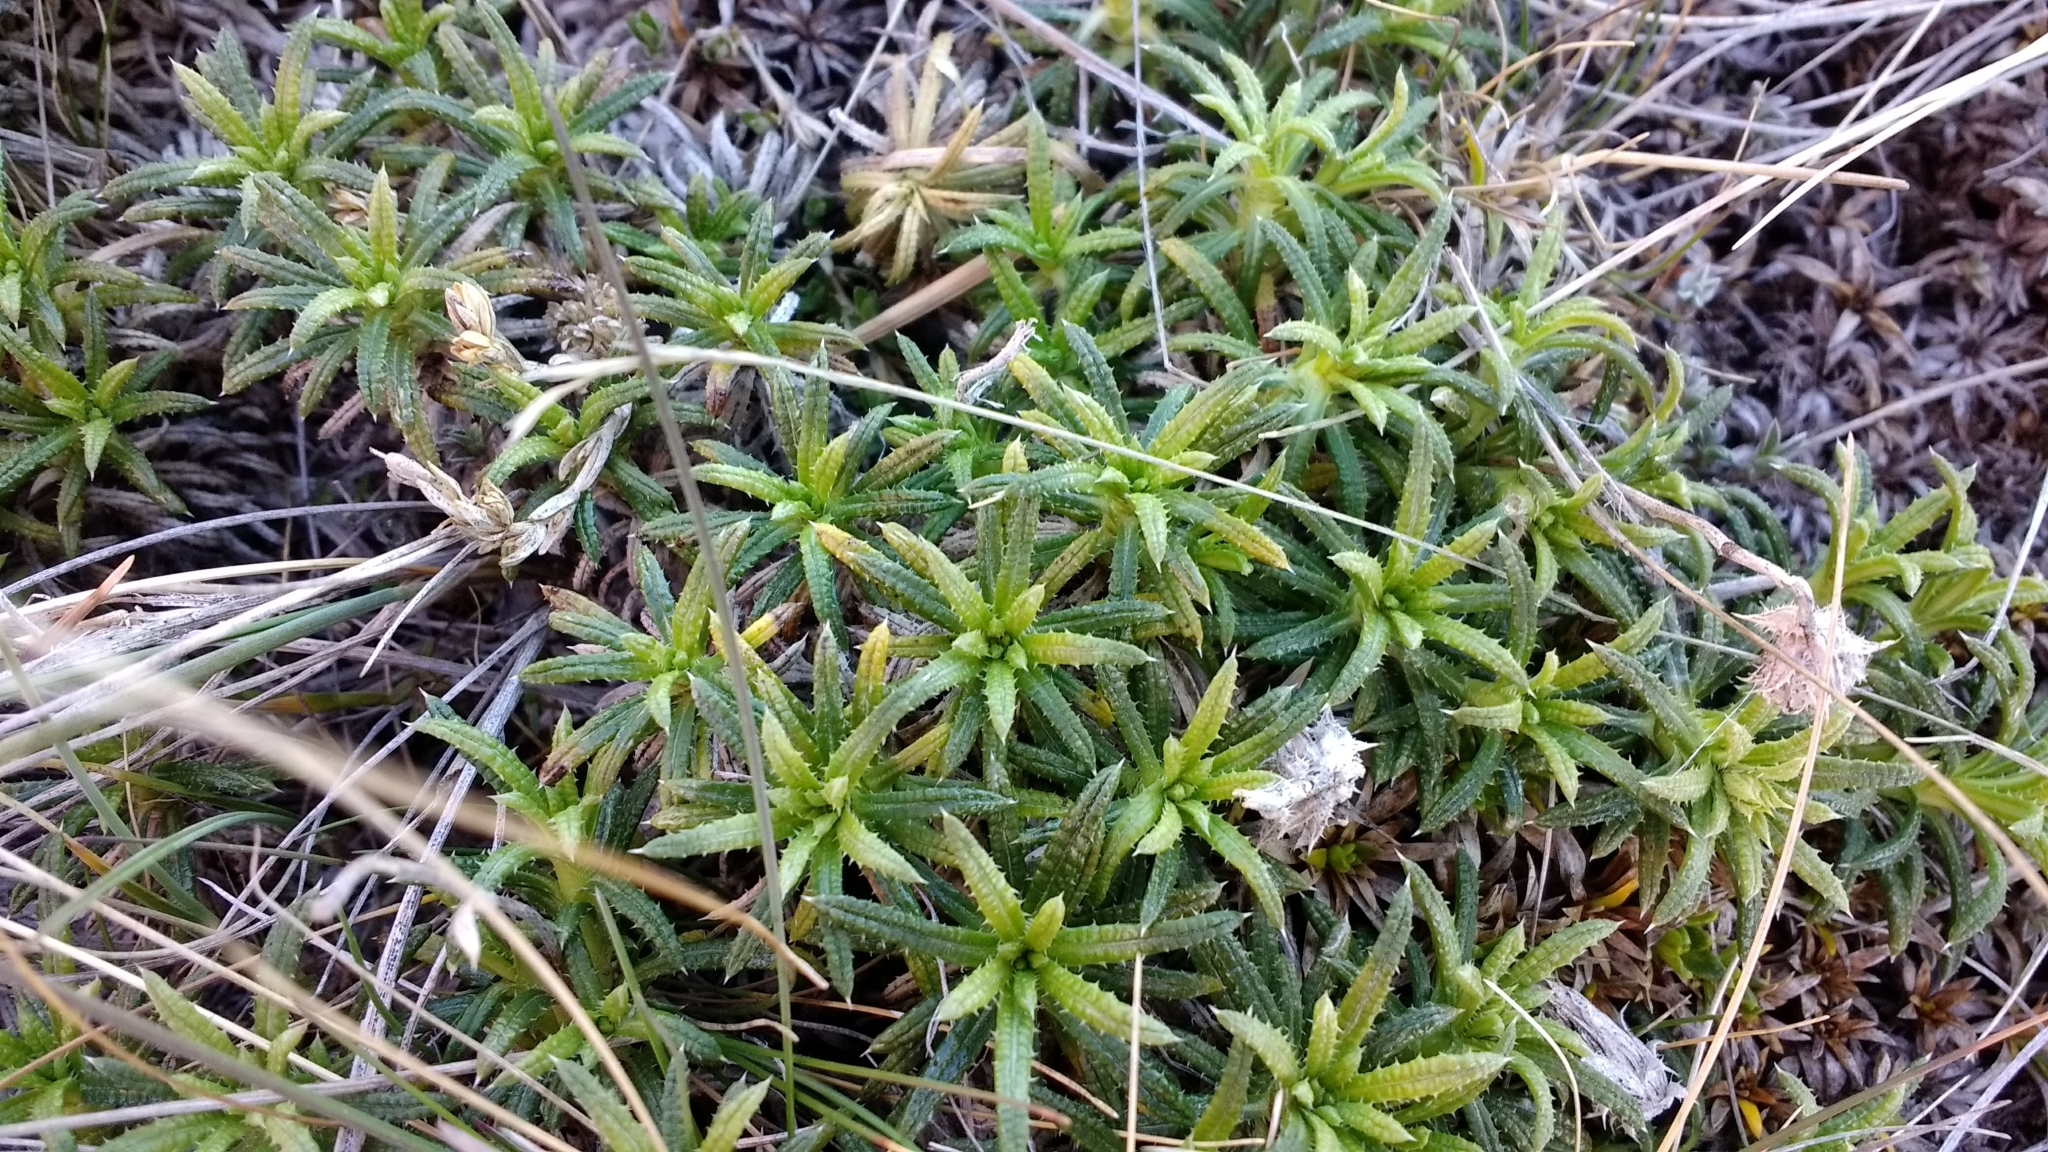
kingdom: Plantae
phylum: Tracheophyta
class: Magnoliopsida
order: Asterales
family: Asteraceae
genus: Perezia
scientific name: Perezia recurvata
